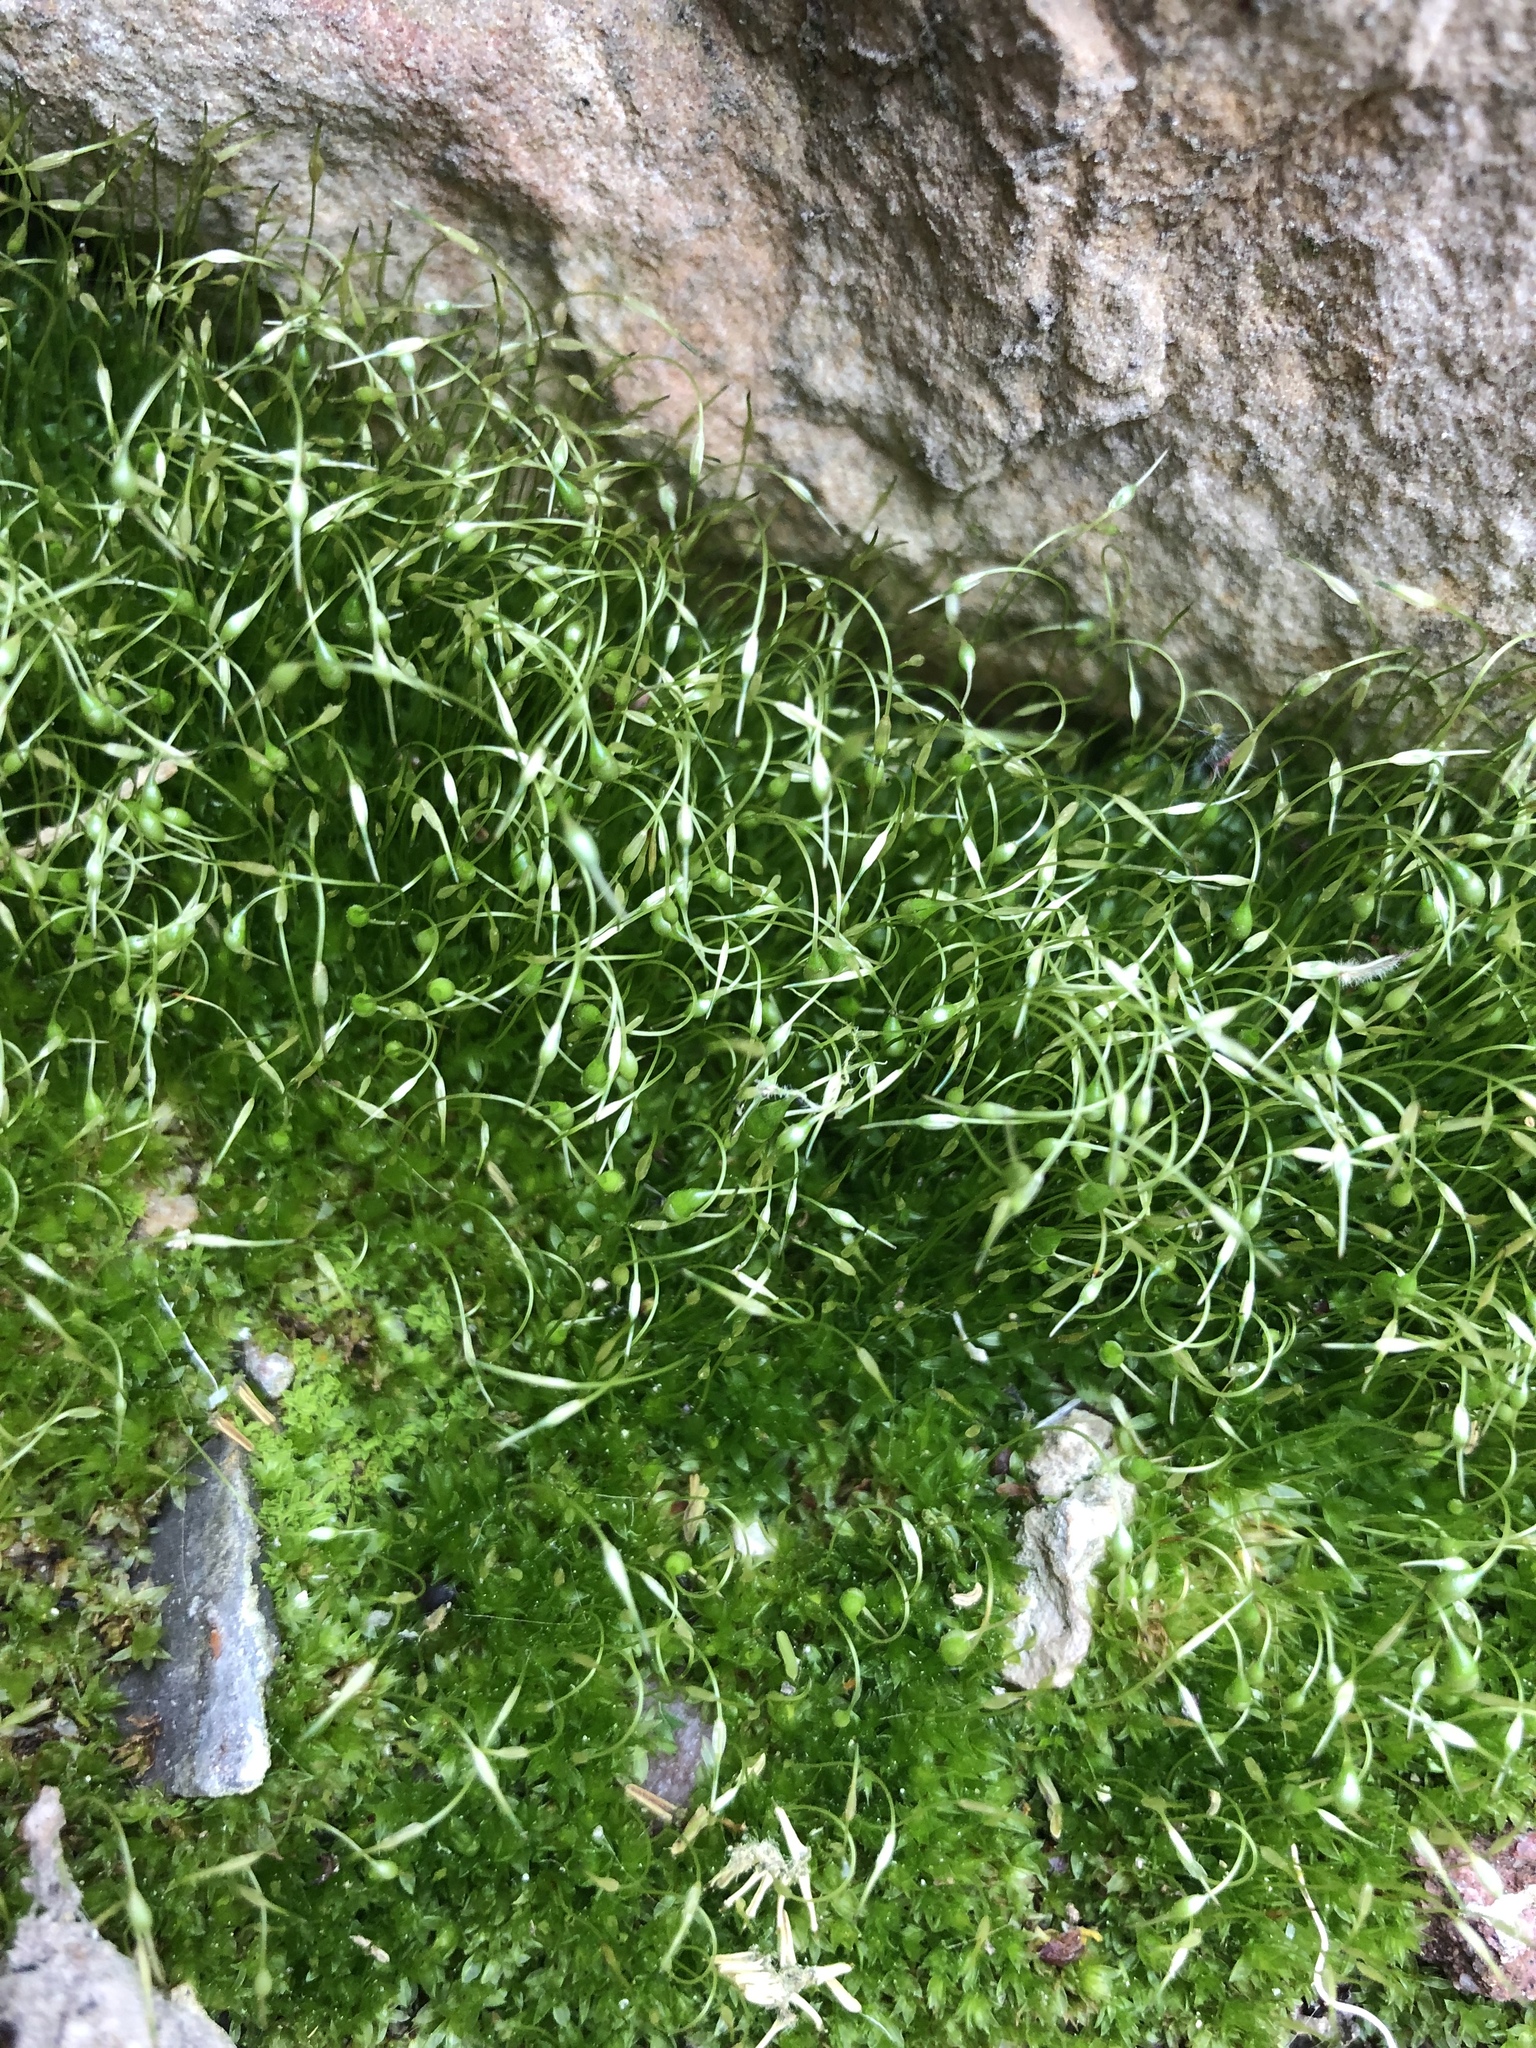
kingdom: Plantae
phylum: Bryophyta
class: Bryopsida
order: Funariales
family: Funariaceae
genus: Funaria
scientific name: Funaria hygrometrica
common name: Common cord moss
